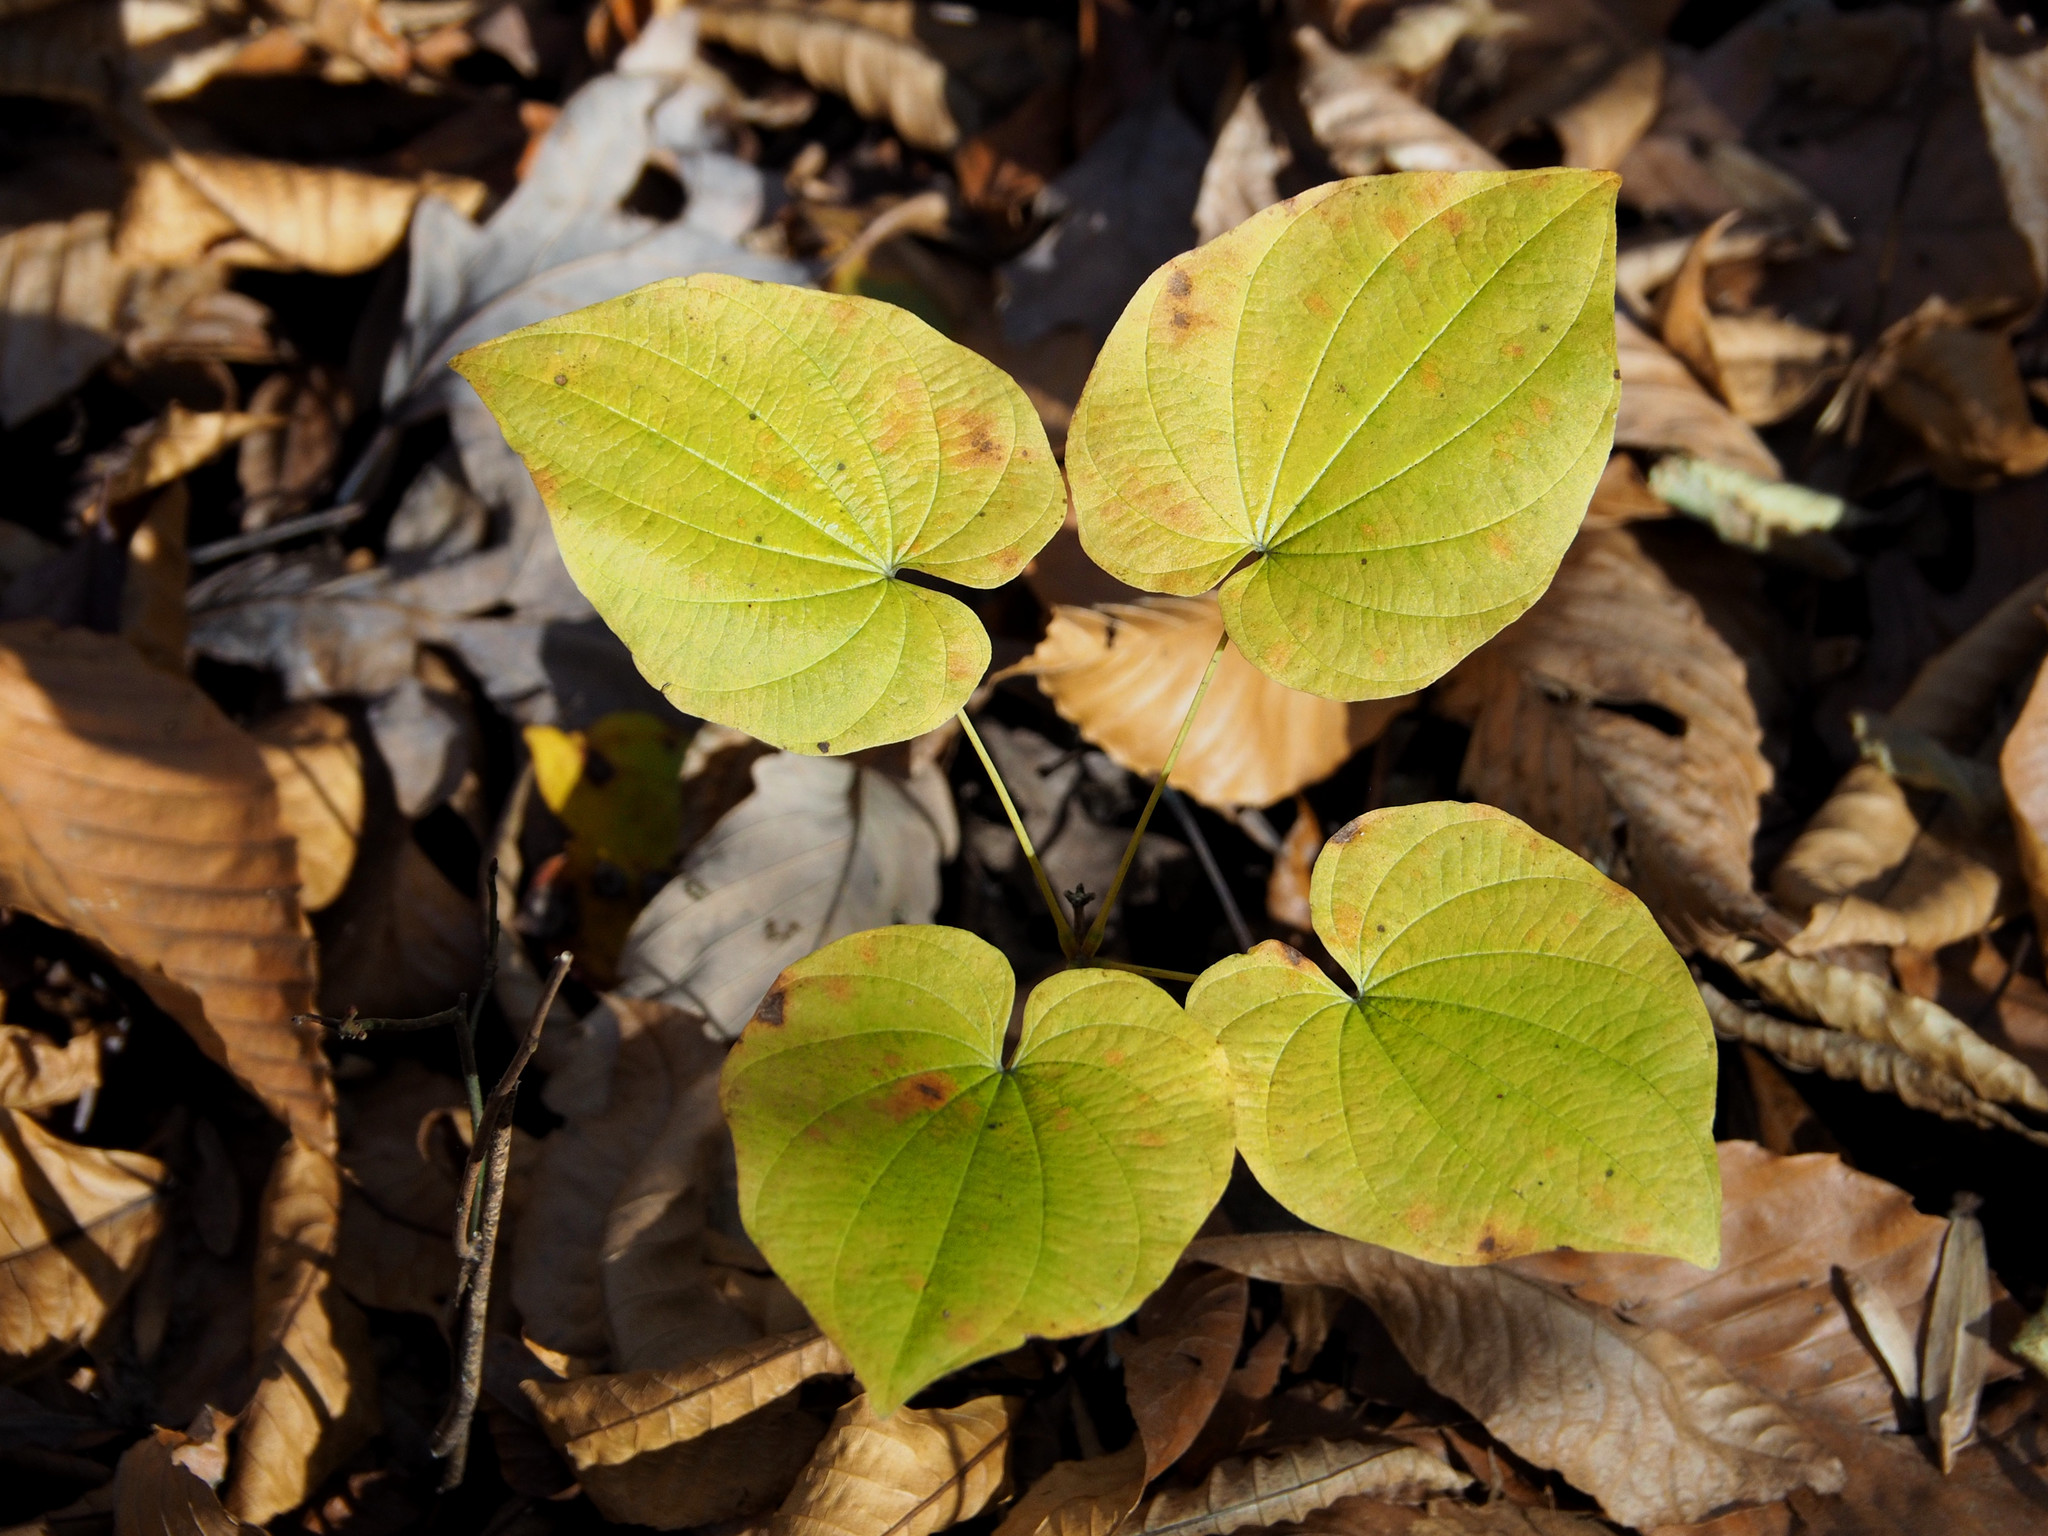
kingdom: Plantae
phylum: Tracheophyta
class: Liliopsida
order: Dioscoreales
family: Dioscoreaceae
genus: Dioscorea
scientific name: Dioscorea villosa
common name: Wild yam
